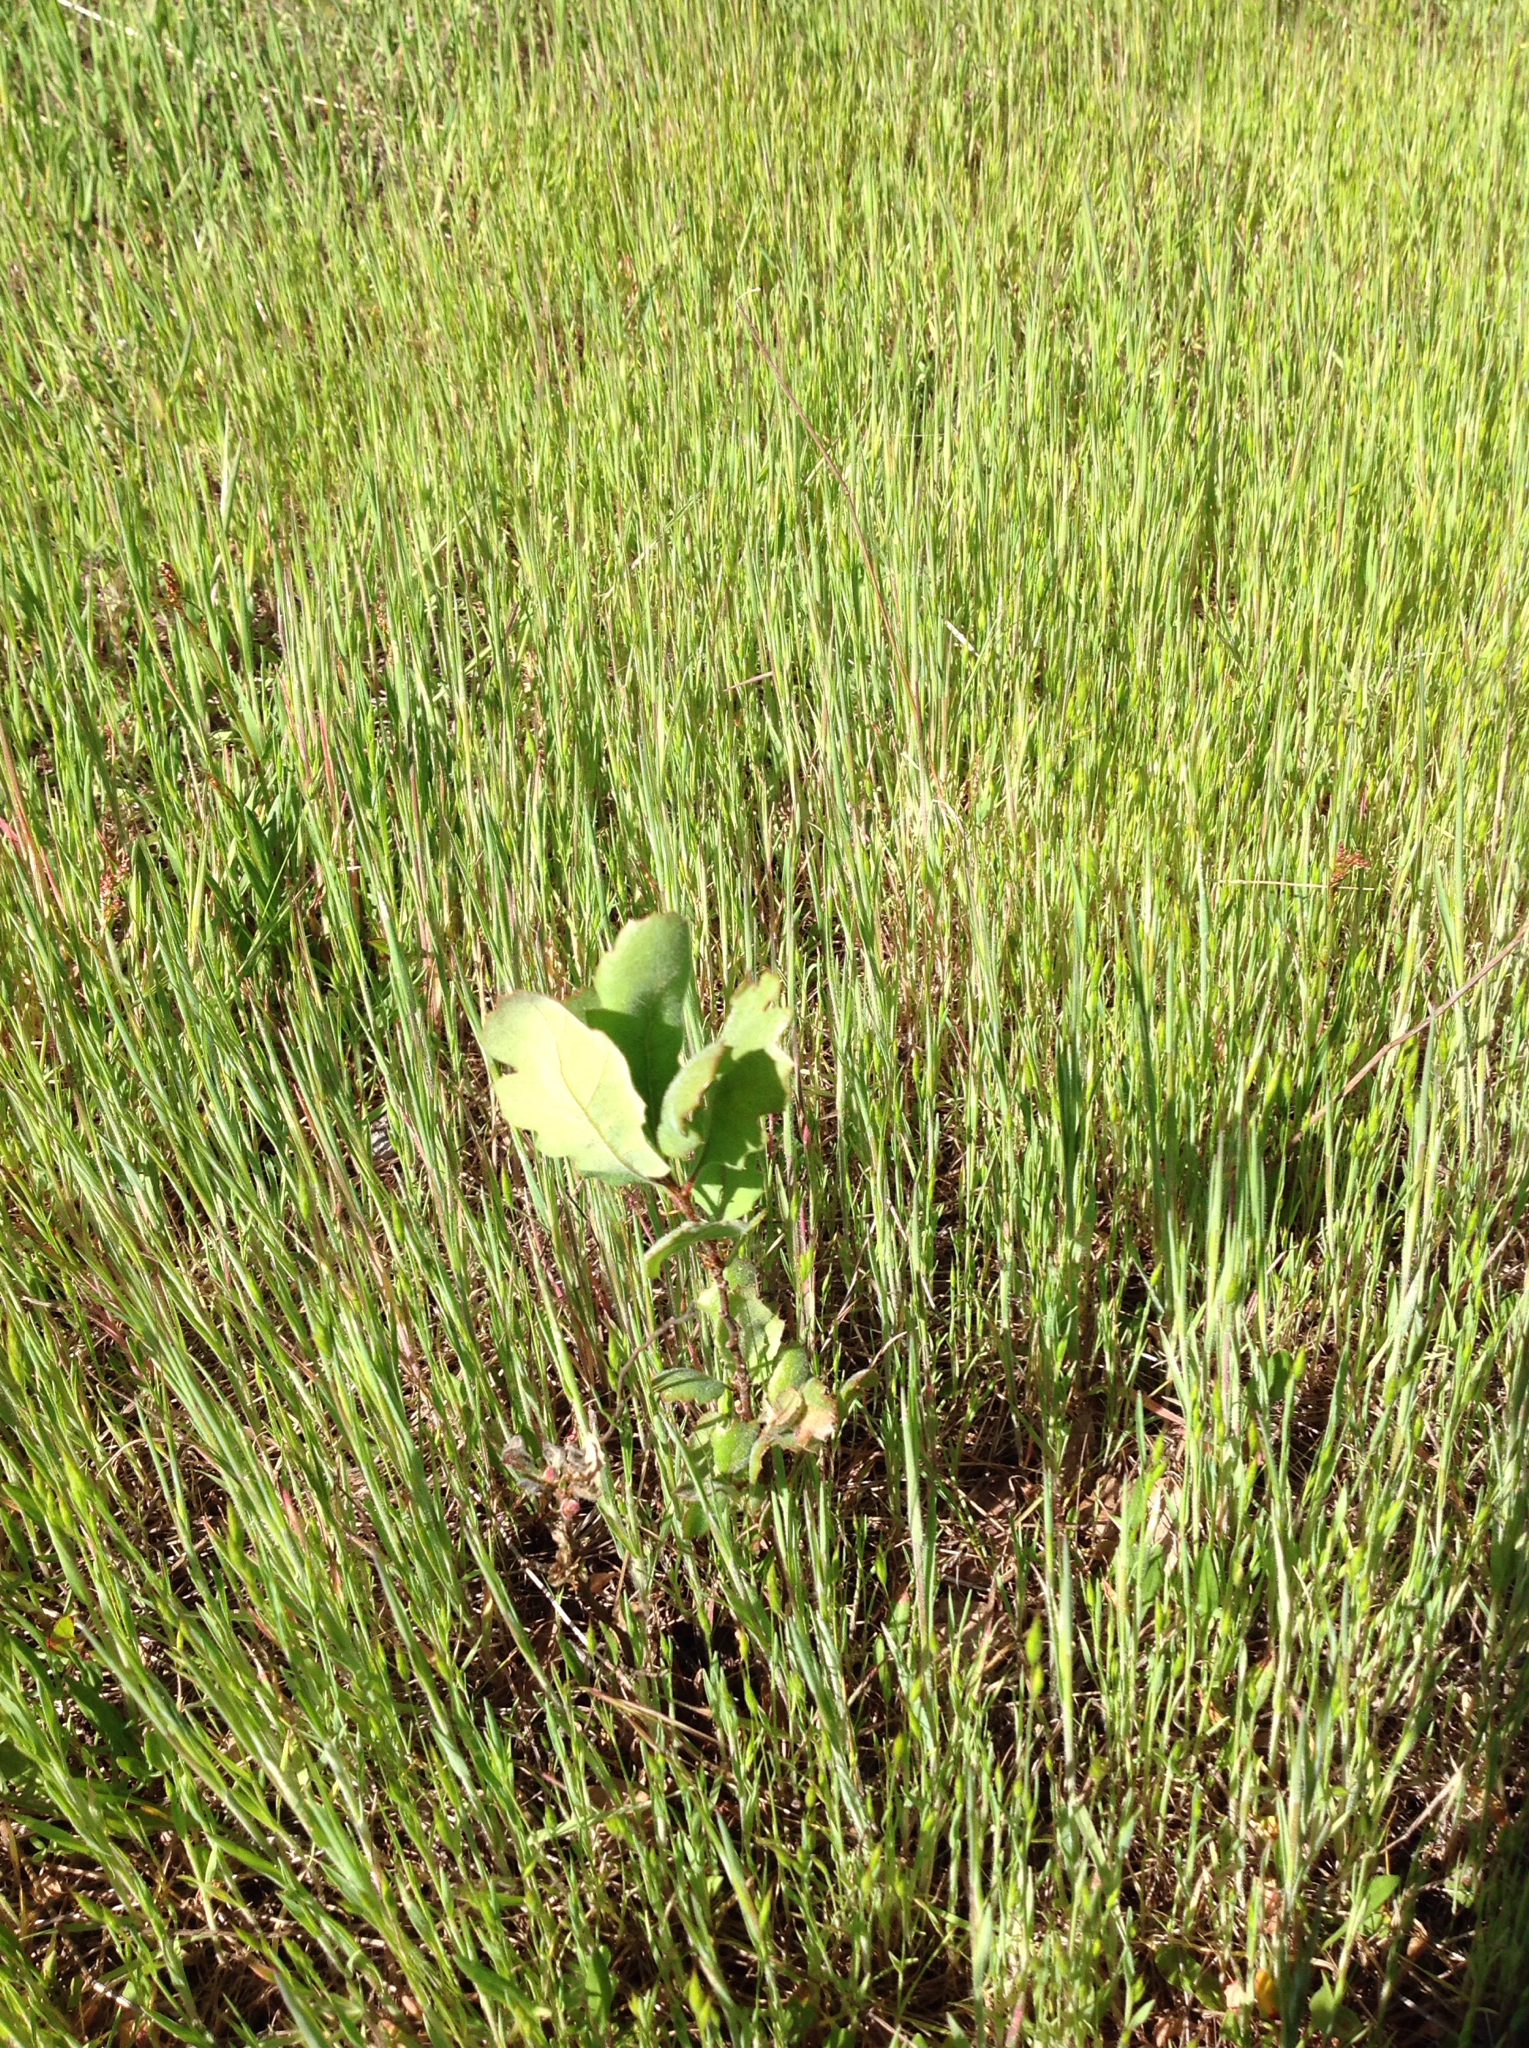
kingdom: Plantae
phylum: Tracheophyta
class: Magnoliopsida
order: Fagales
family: Fagaceae
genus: Quercus
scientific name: Quercus douglasii
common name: Blue oak
